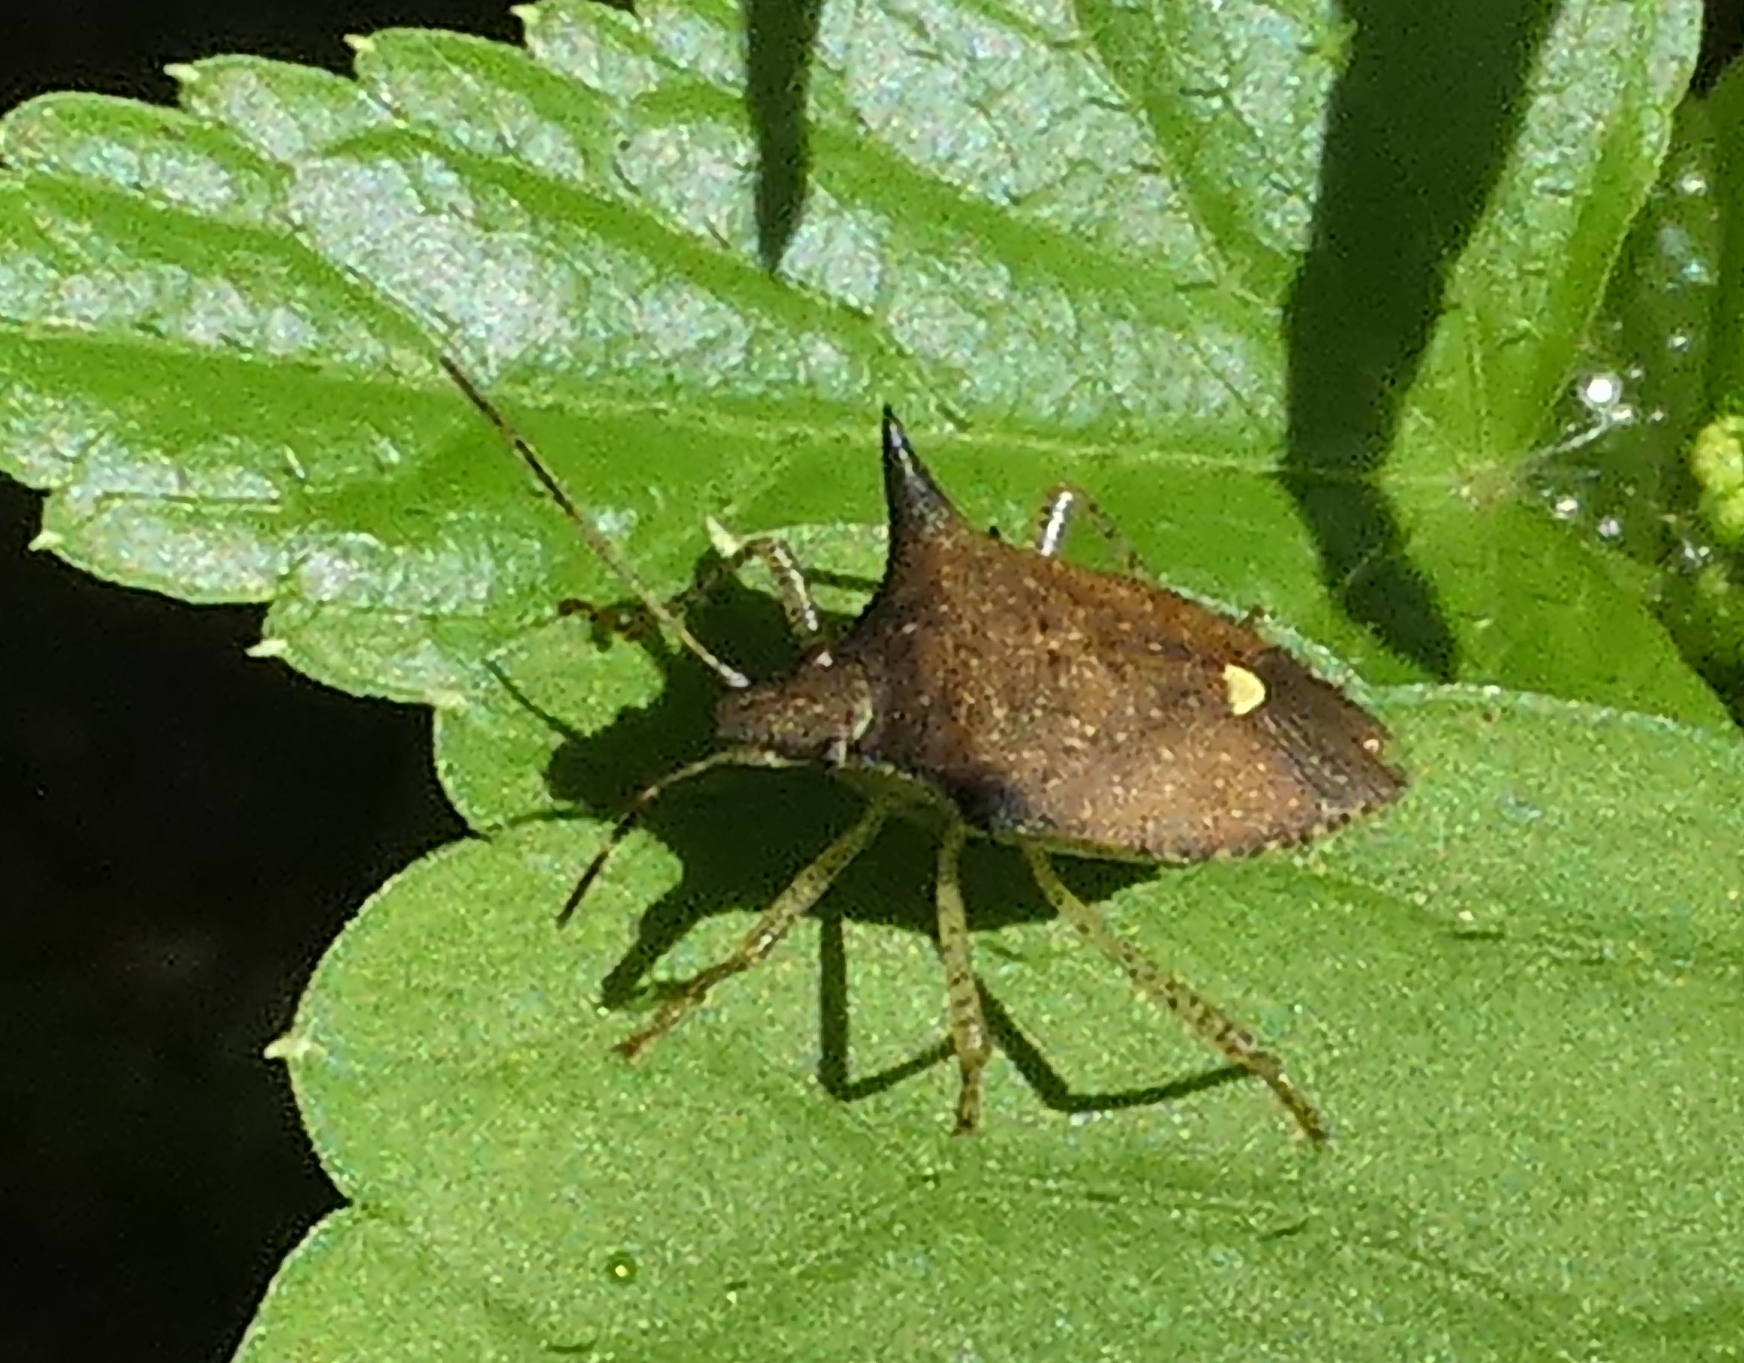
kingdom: Animalia
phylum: Arthropoda
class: Insecta
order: Hemiptera
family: Pentatomidae
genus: Euschistus
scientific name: Euschistus
